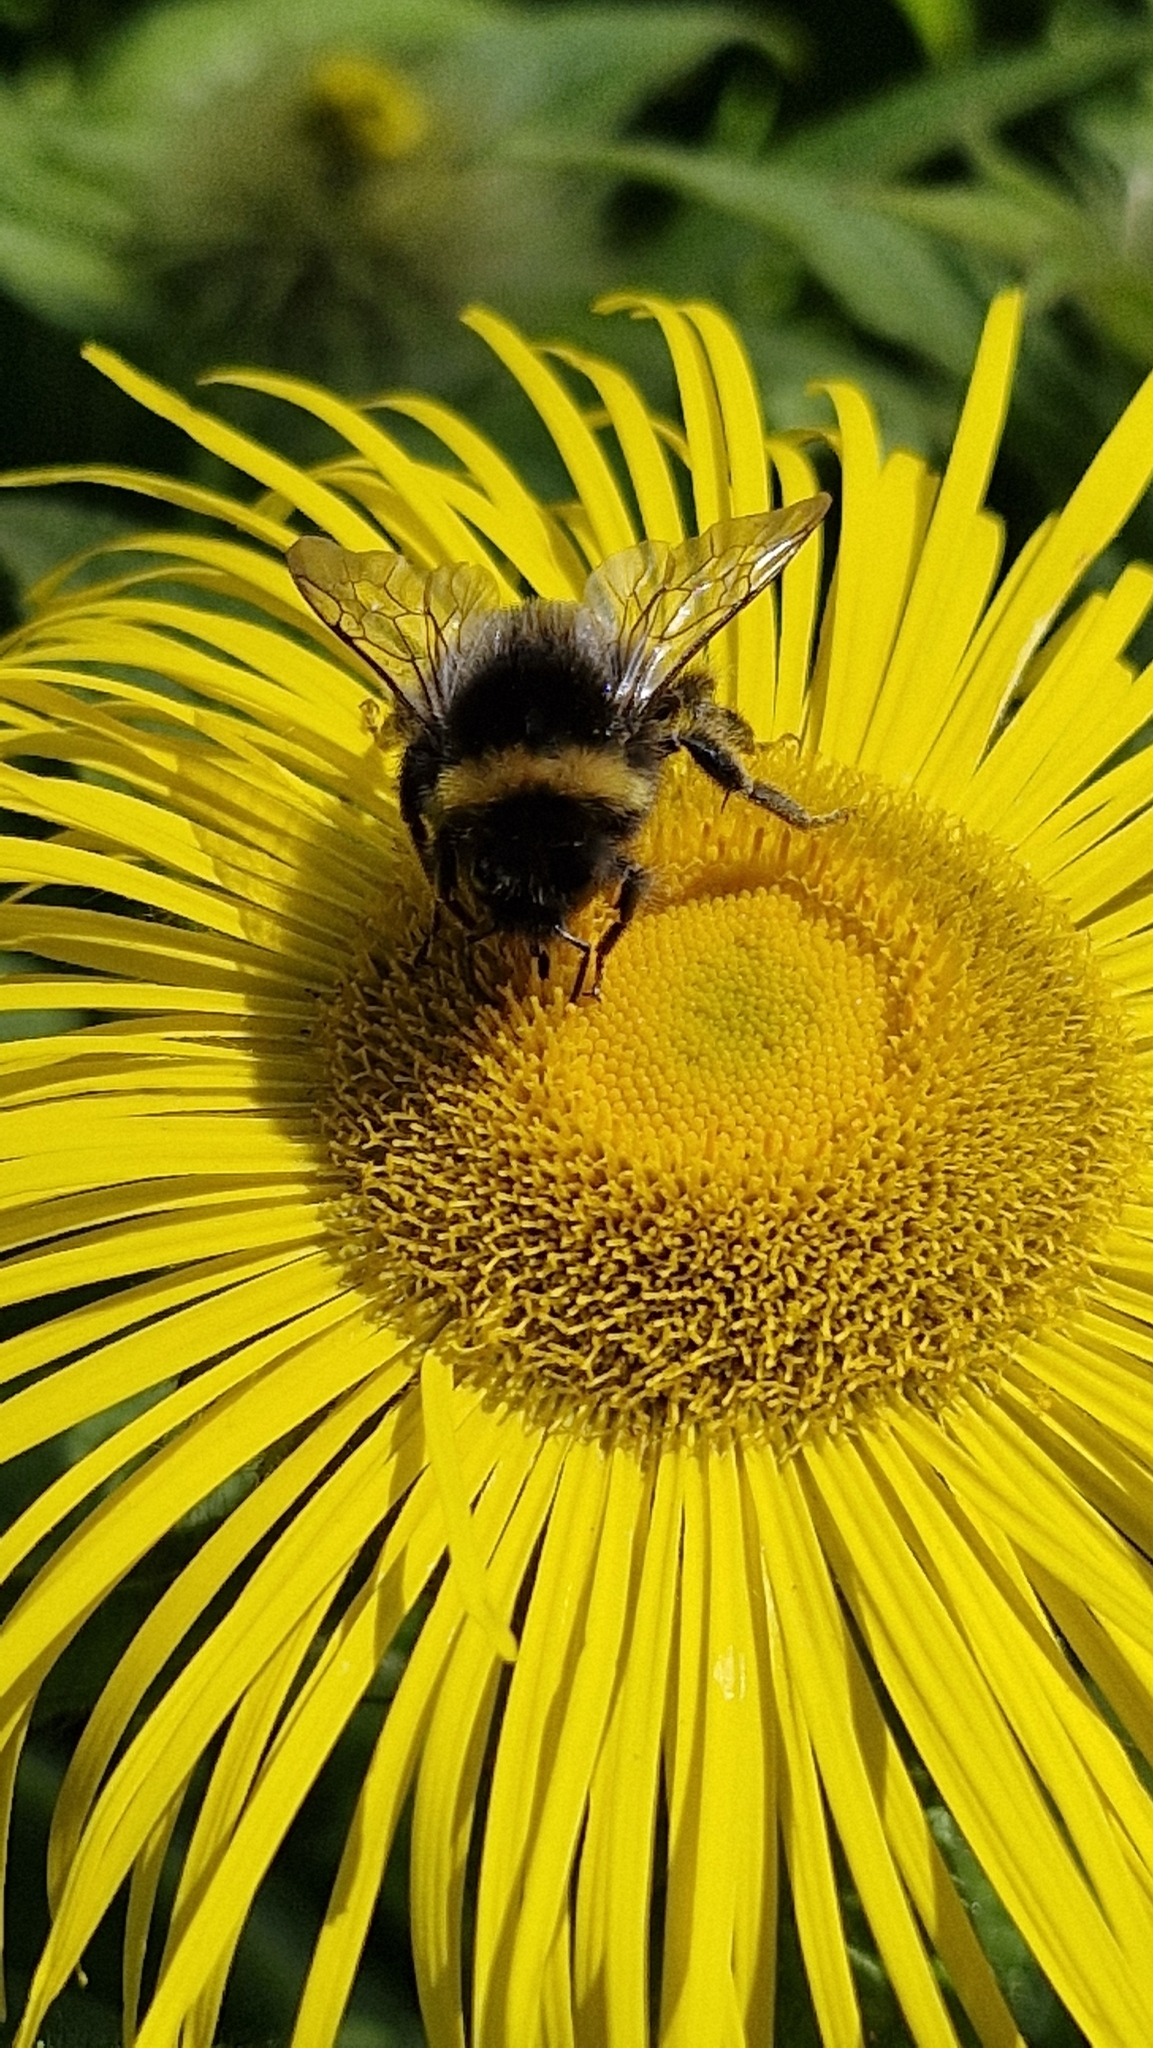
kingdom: Animalia
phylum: Arthropoda
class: Insecta
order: Hymenoptera
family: Apidae
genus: Bombus
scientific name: Bombus terrestris
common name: Buff-tailed bumblebee
